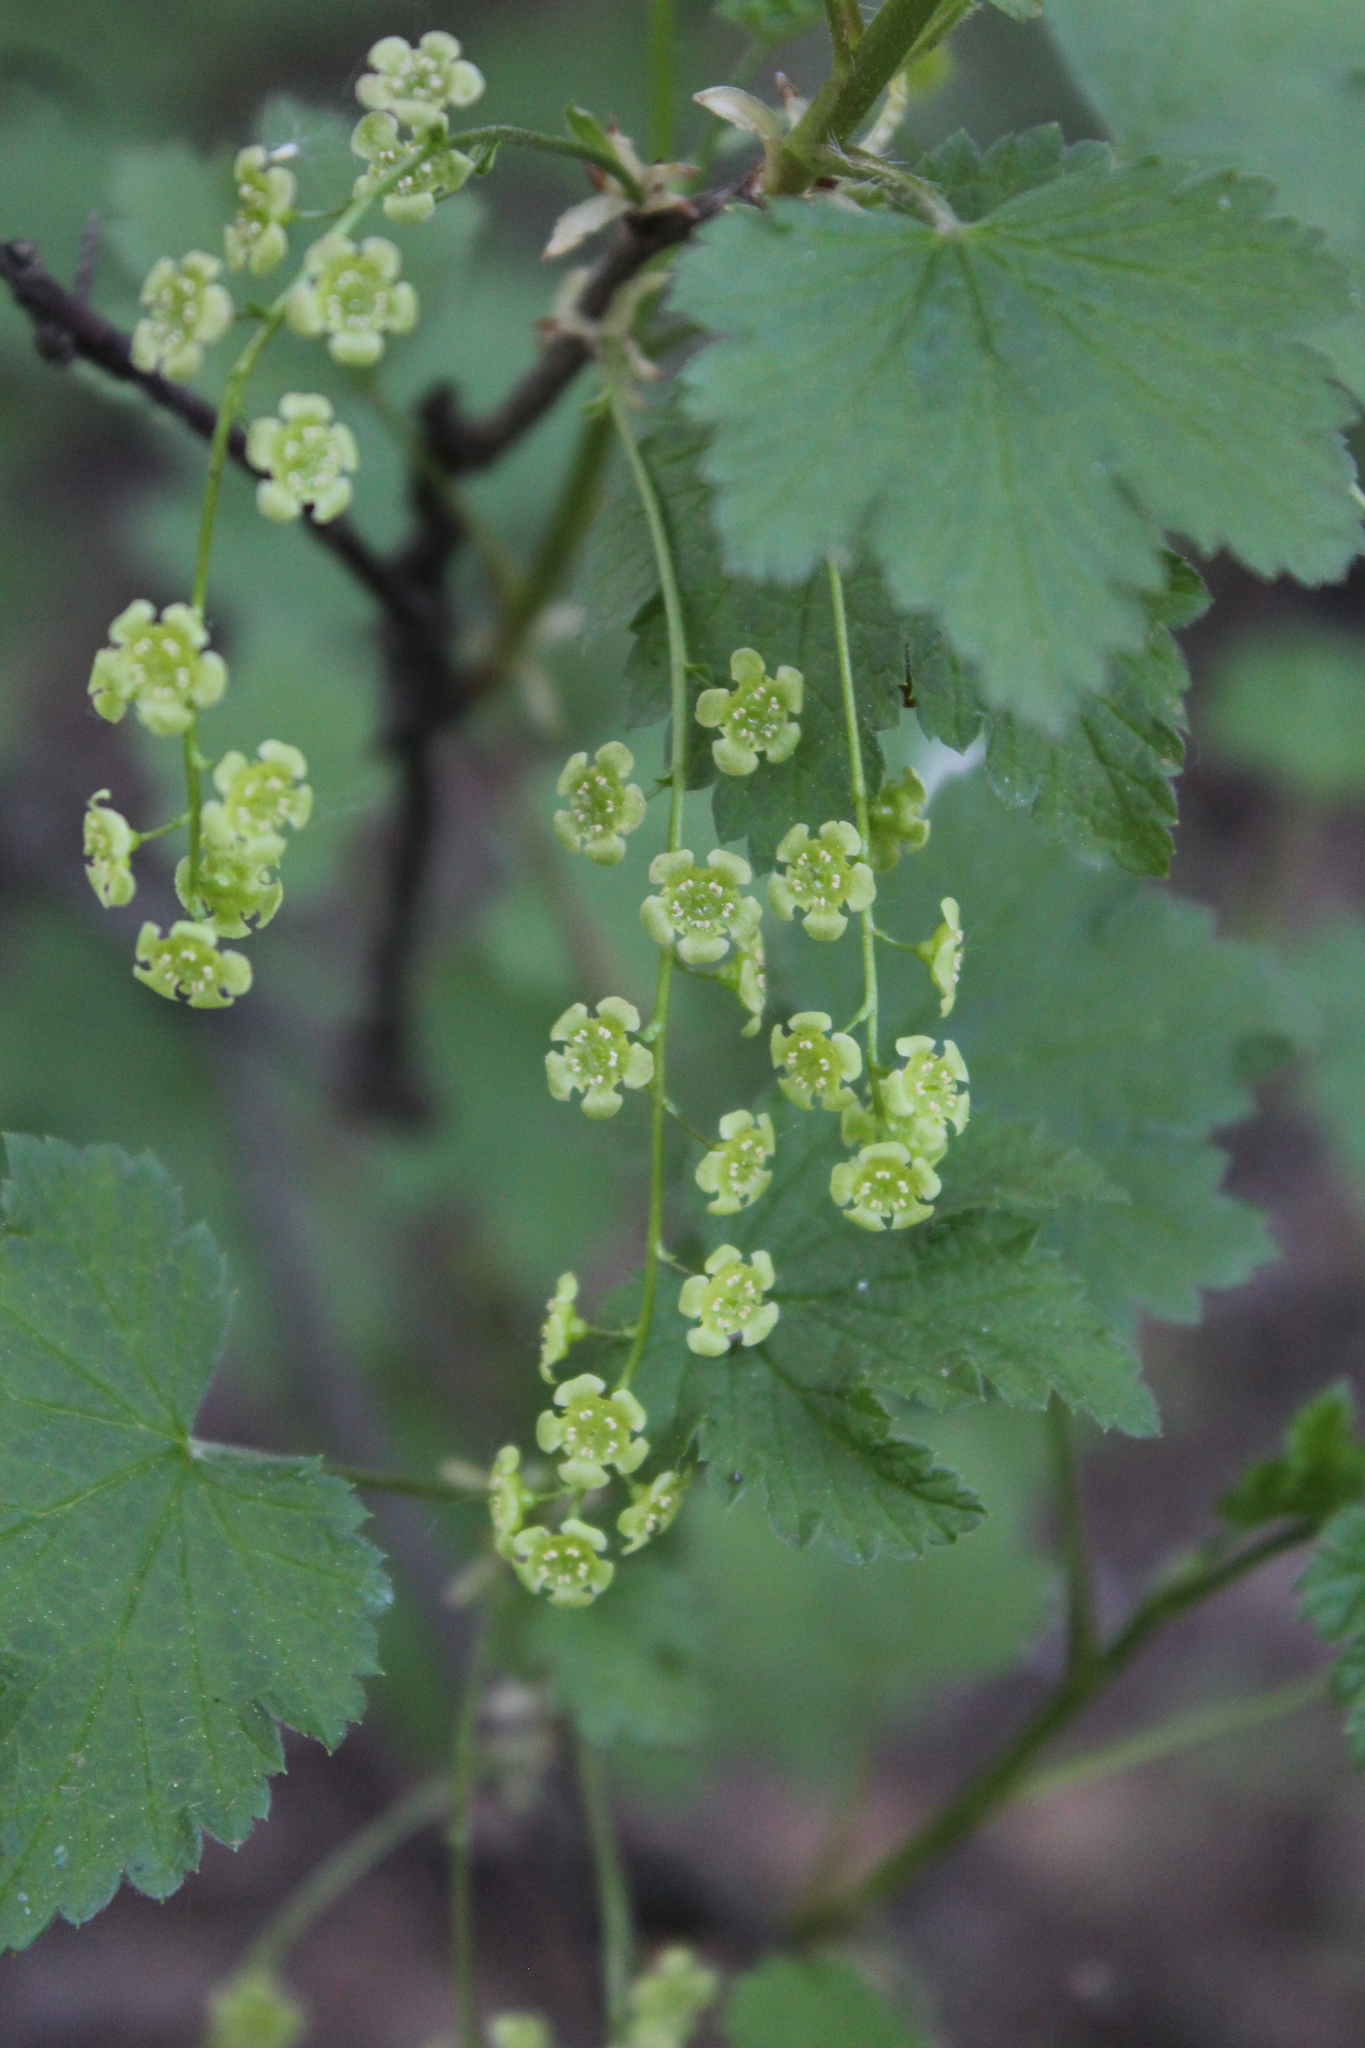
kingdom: Plantae
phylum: Tracheophyta
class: Magnoliopsida
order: Saxifragales
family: Grossulariaceae
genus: Ribes
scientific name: Ribes rubrum
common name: Red currant
